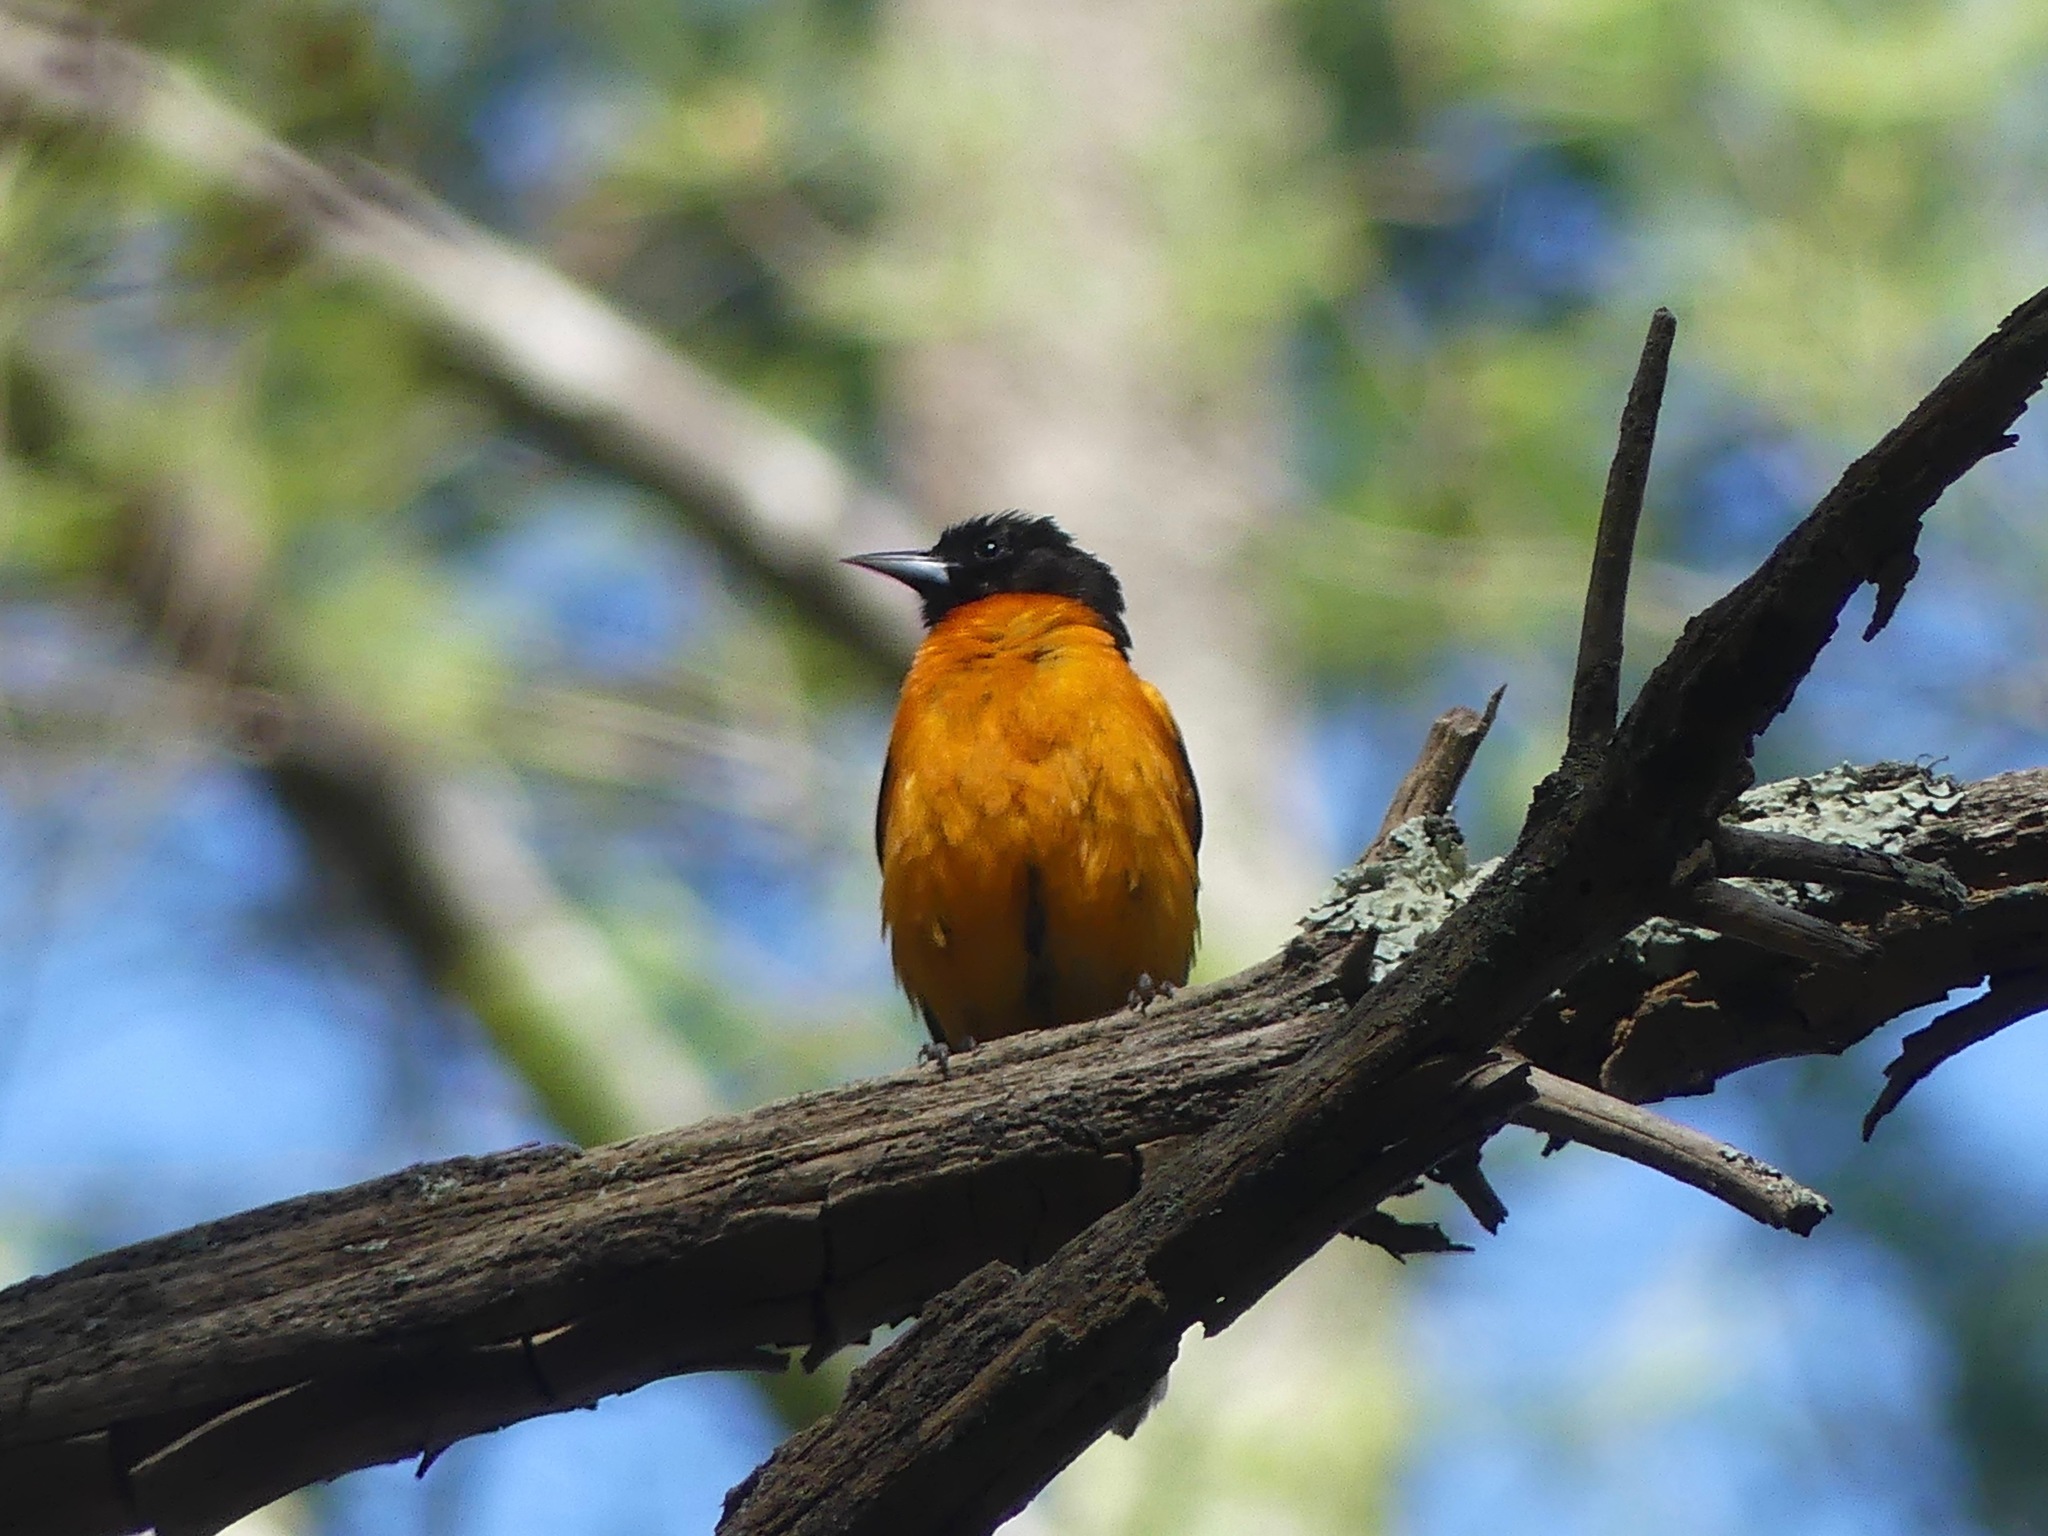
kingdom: Animalia
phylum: Chordata
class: Aves
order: Passeriformes
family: Icteridae
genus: Icterus
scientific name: Icterus galbula
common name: Baltimore oriole
